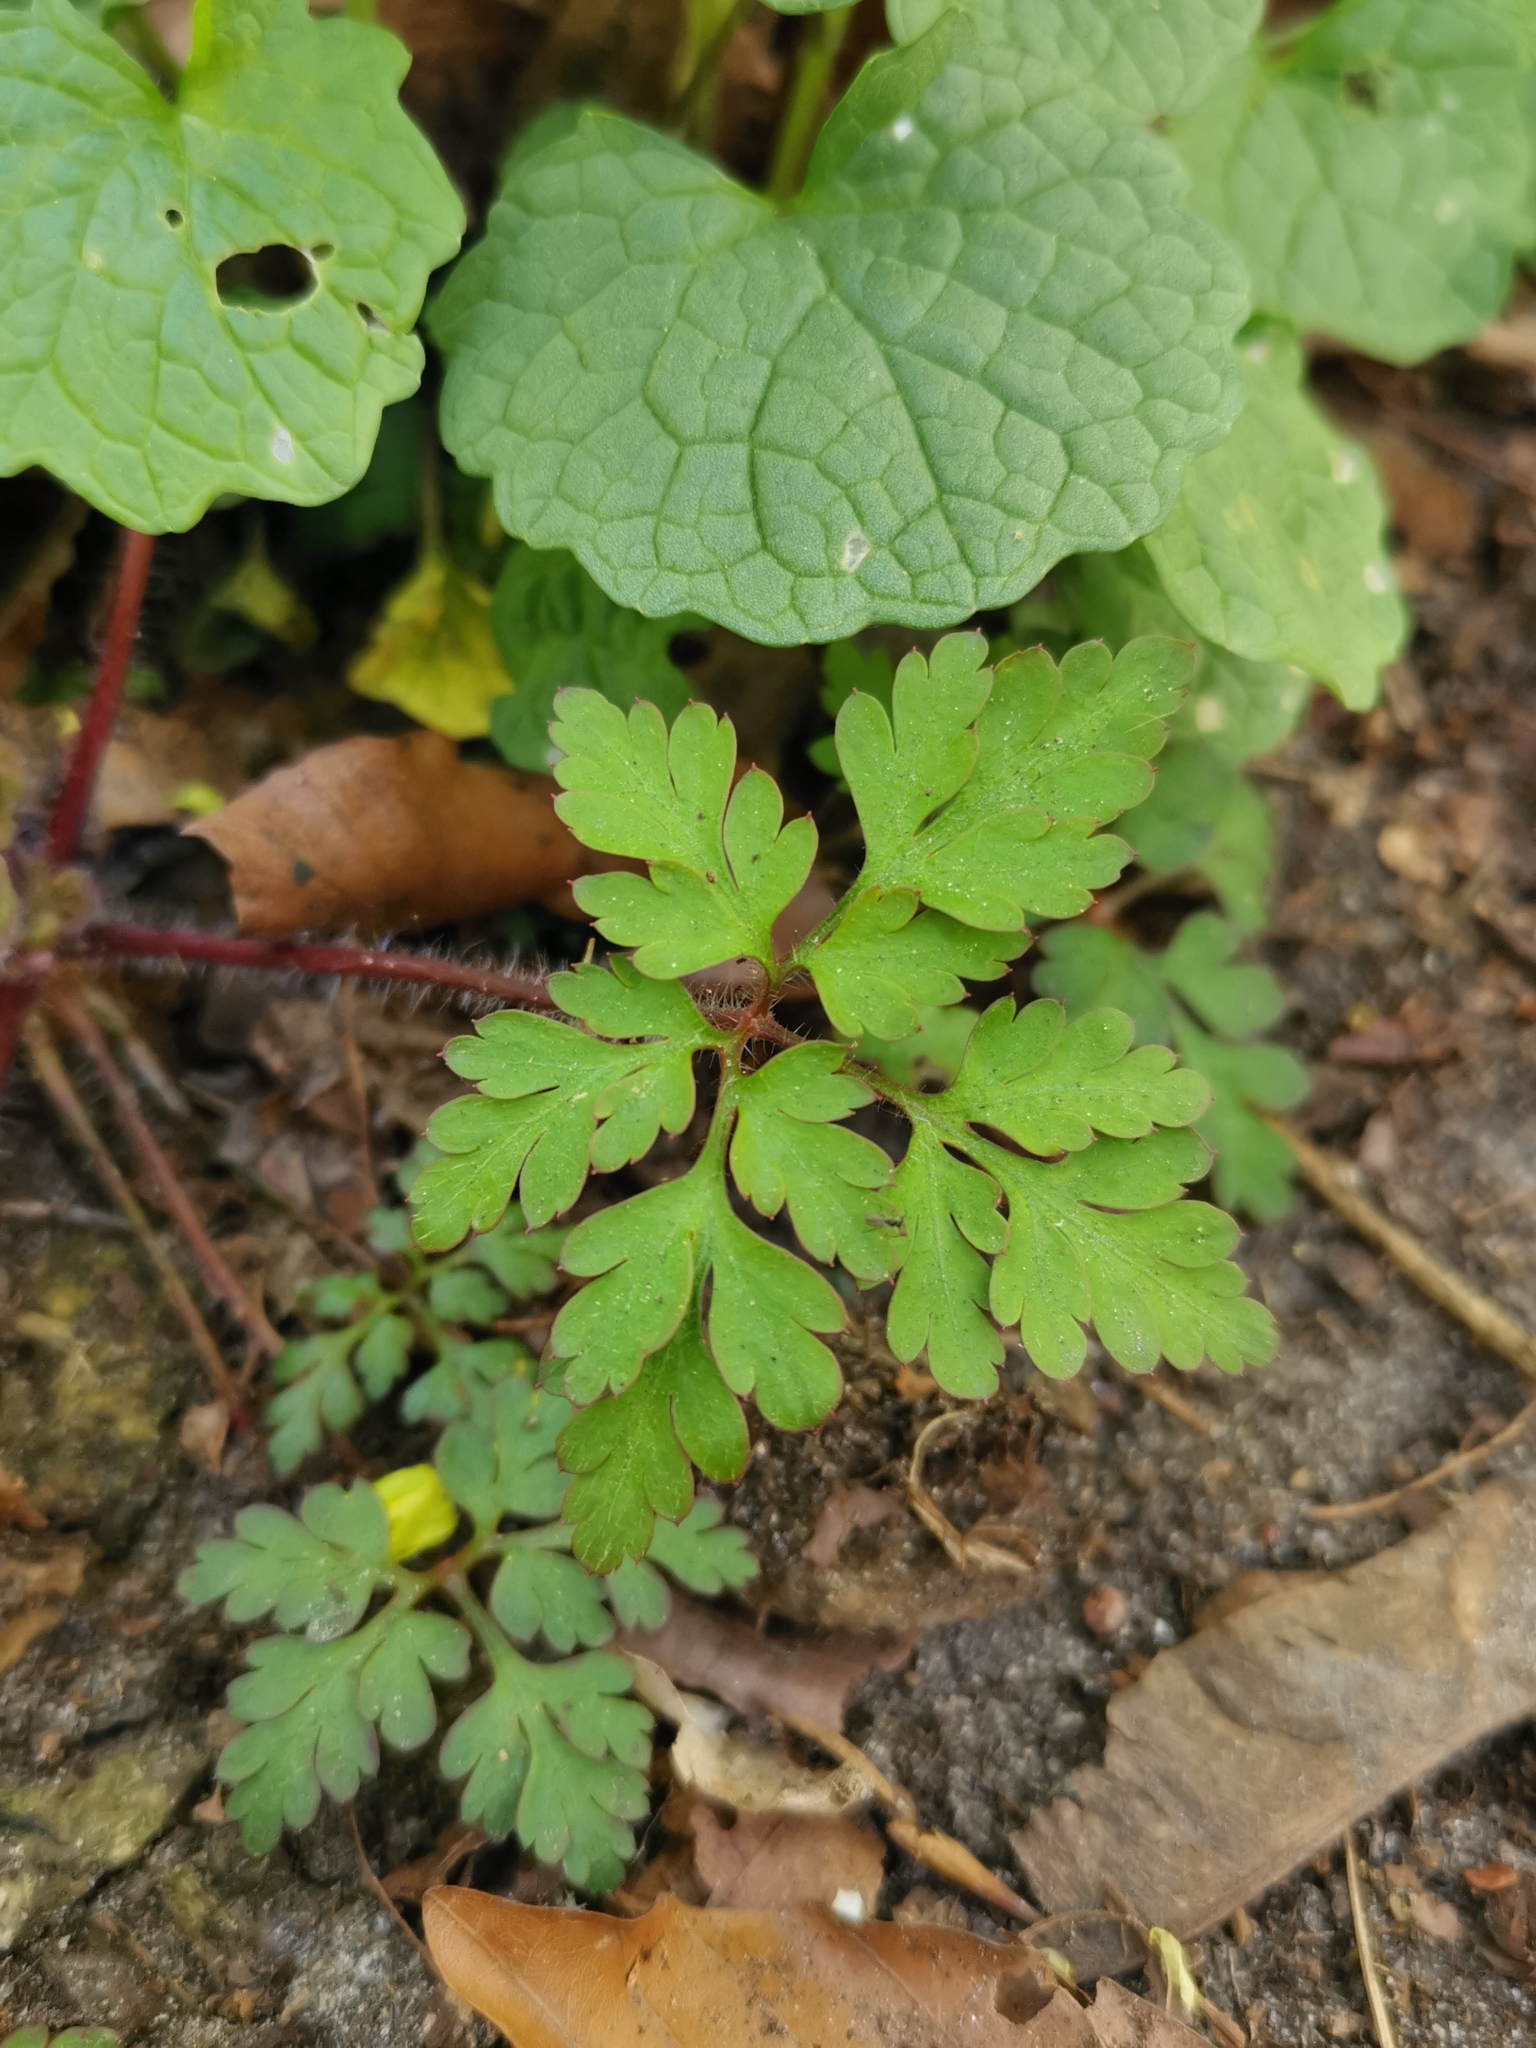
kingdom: Plantae
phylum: Tracheophyta
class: Magnoliopsida
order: Geraniales
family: Geraniaceae
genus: Geranium
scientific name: Geranium robertianum
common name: Herb-robert
